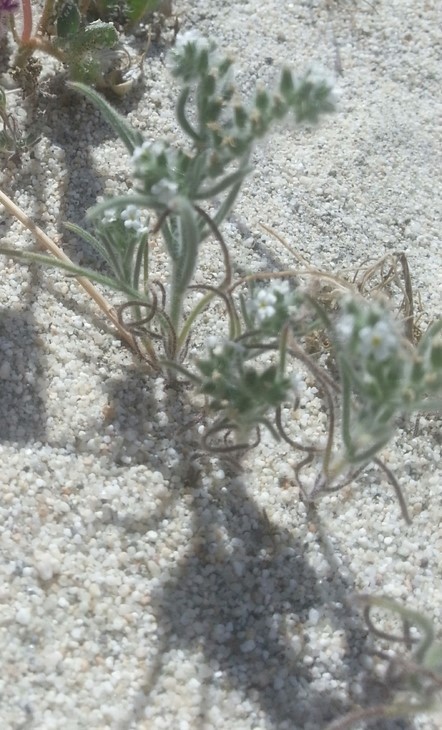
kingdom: Plantae
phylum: Tracheophyta
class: Magnoliopsida
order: Boraginales
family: Boraginaceae
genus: Johnstonella
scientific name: Johnstonella angustifolia
